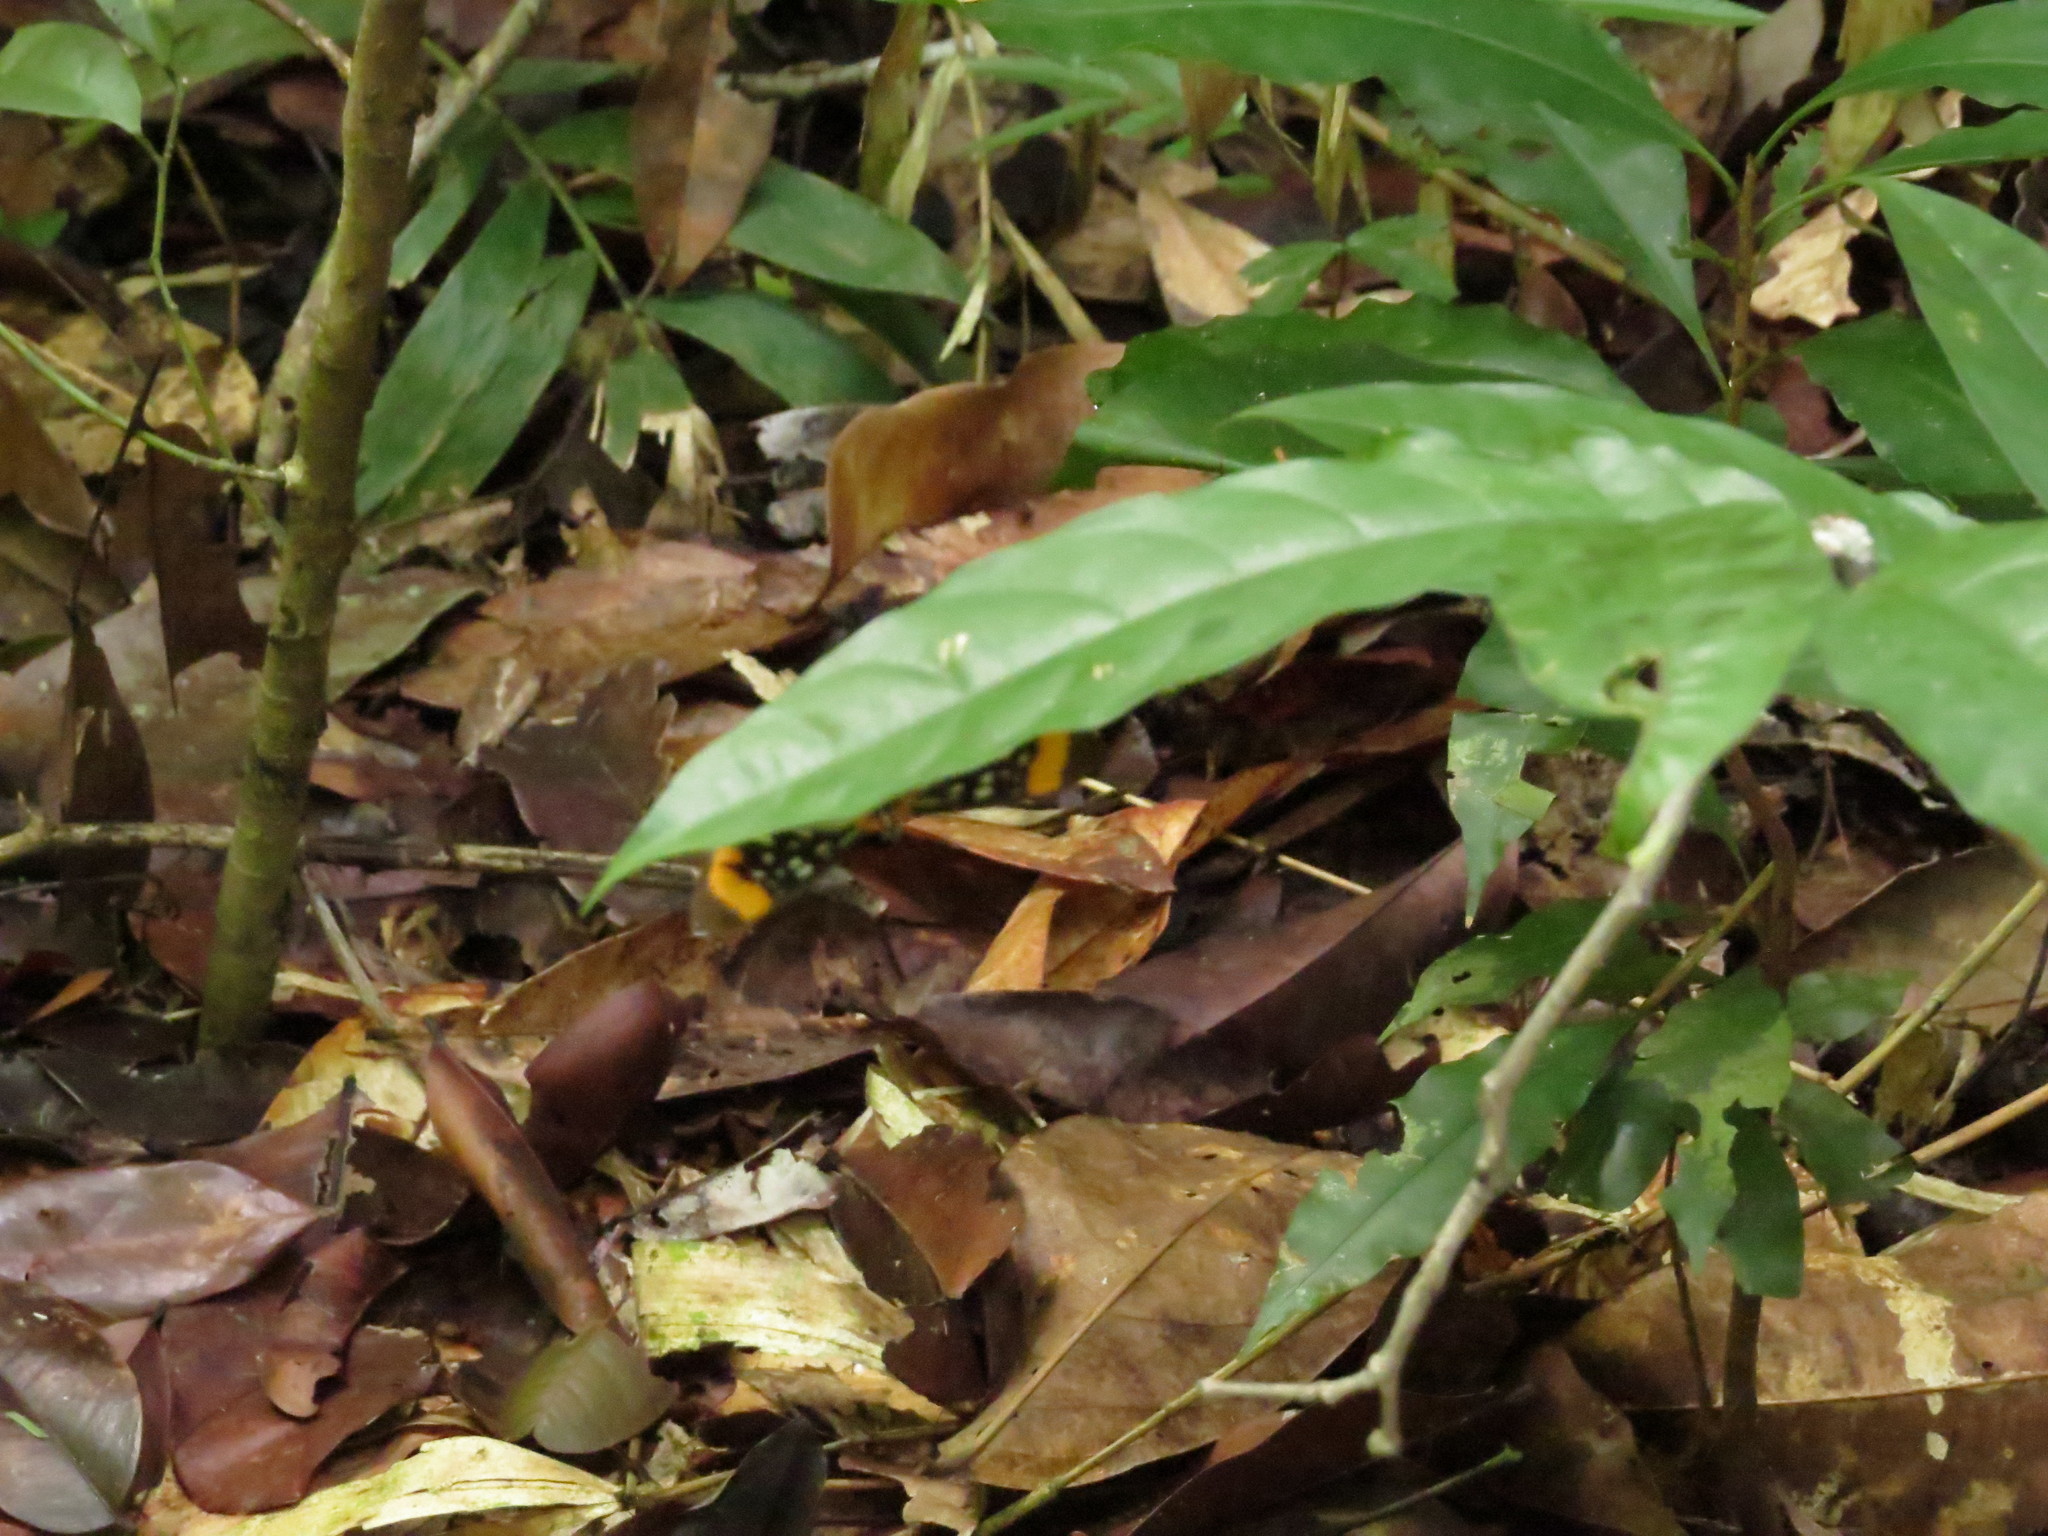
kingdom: Animalia
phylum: Arthropoda
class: Insecta
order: Lepidoptera
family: Riodinidae
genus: Stalachtis
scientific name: Stalachtis euterpe
